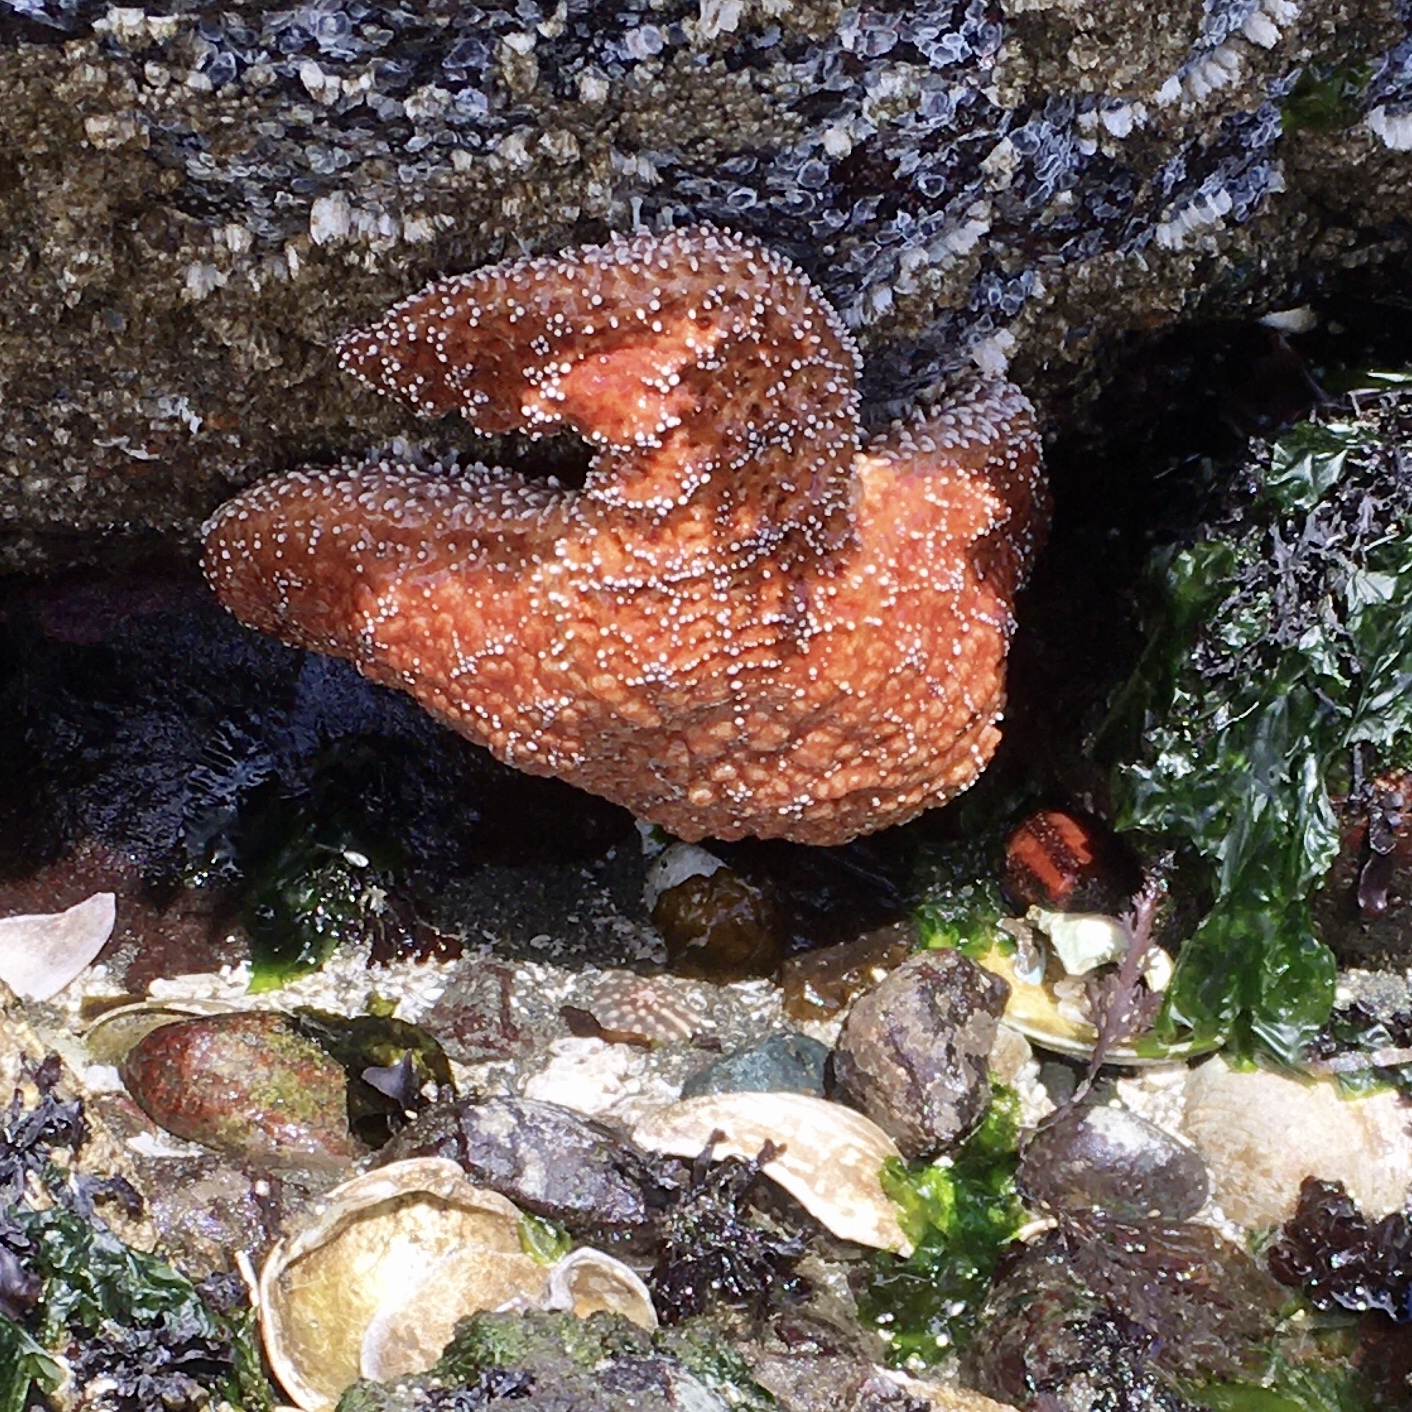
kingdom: Animalia
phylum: Echinodermata
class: Asteroidea
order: Forcipulatida
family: Asteriidae
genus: Pisaster
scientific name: Pisaster ochraceus
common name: Ochre stars
